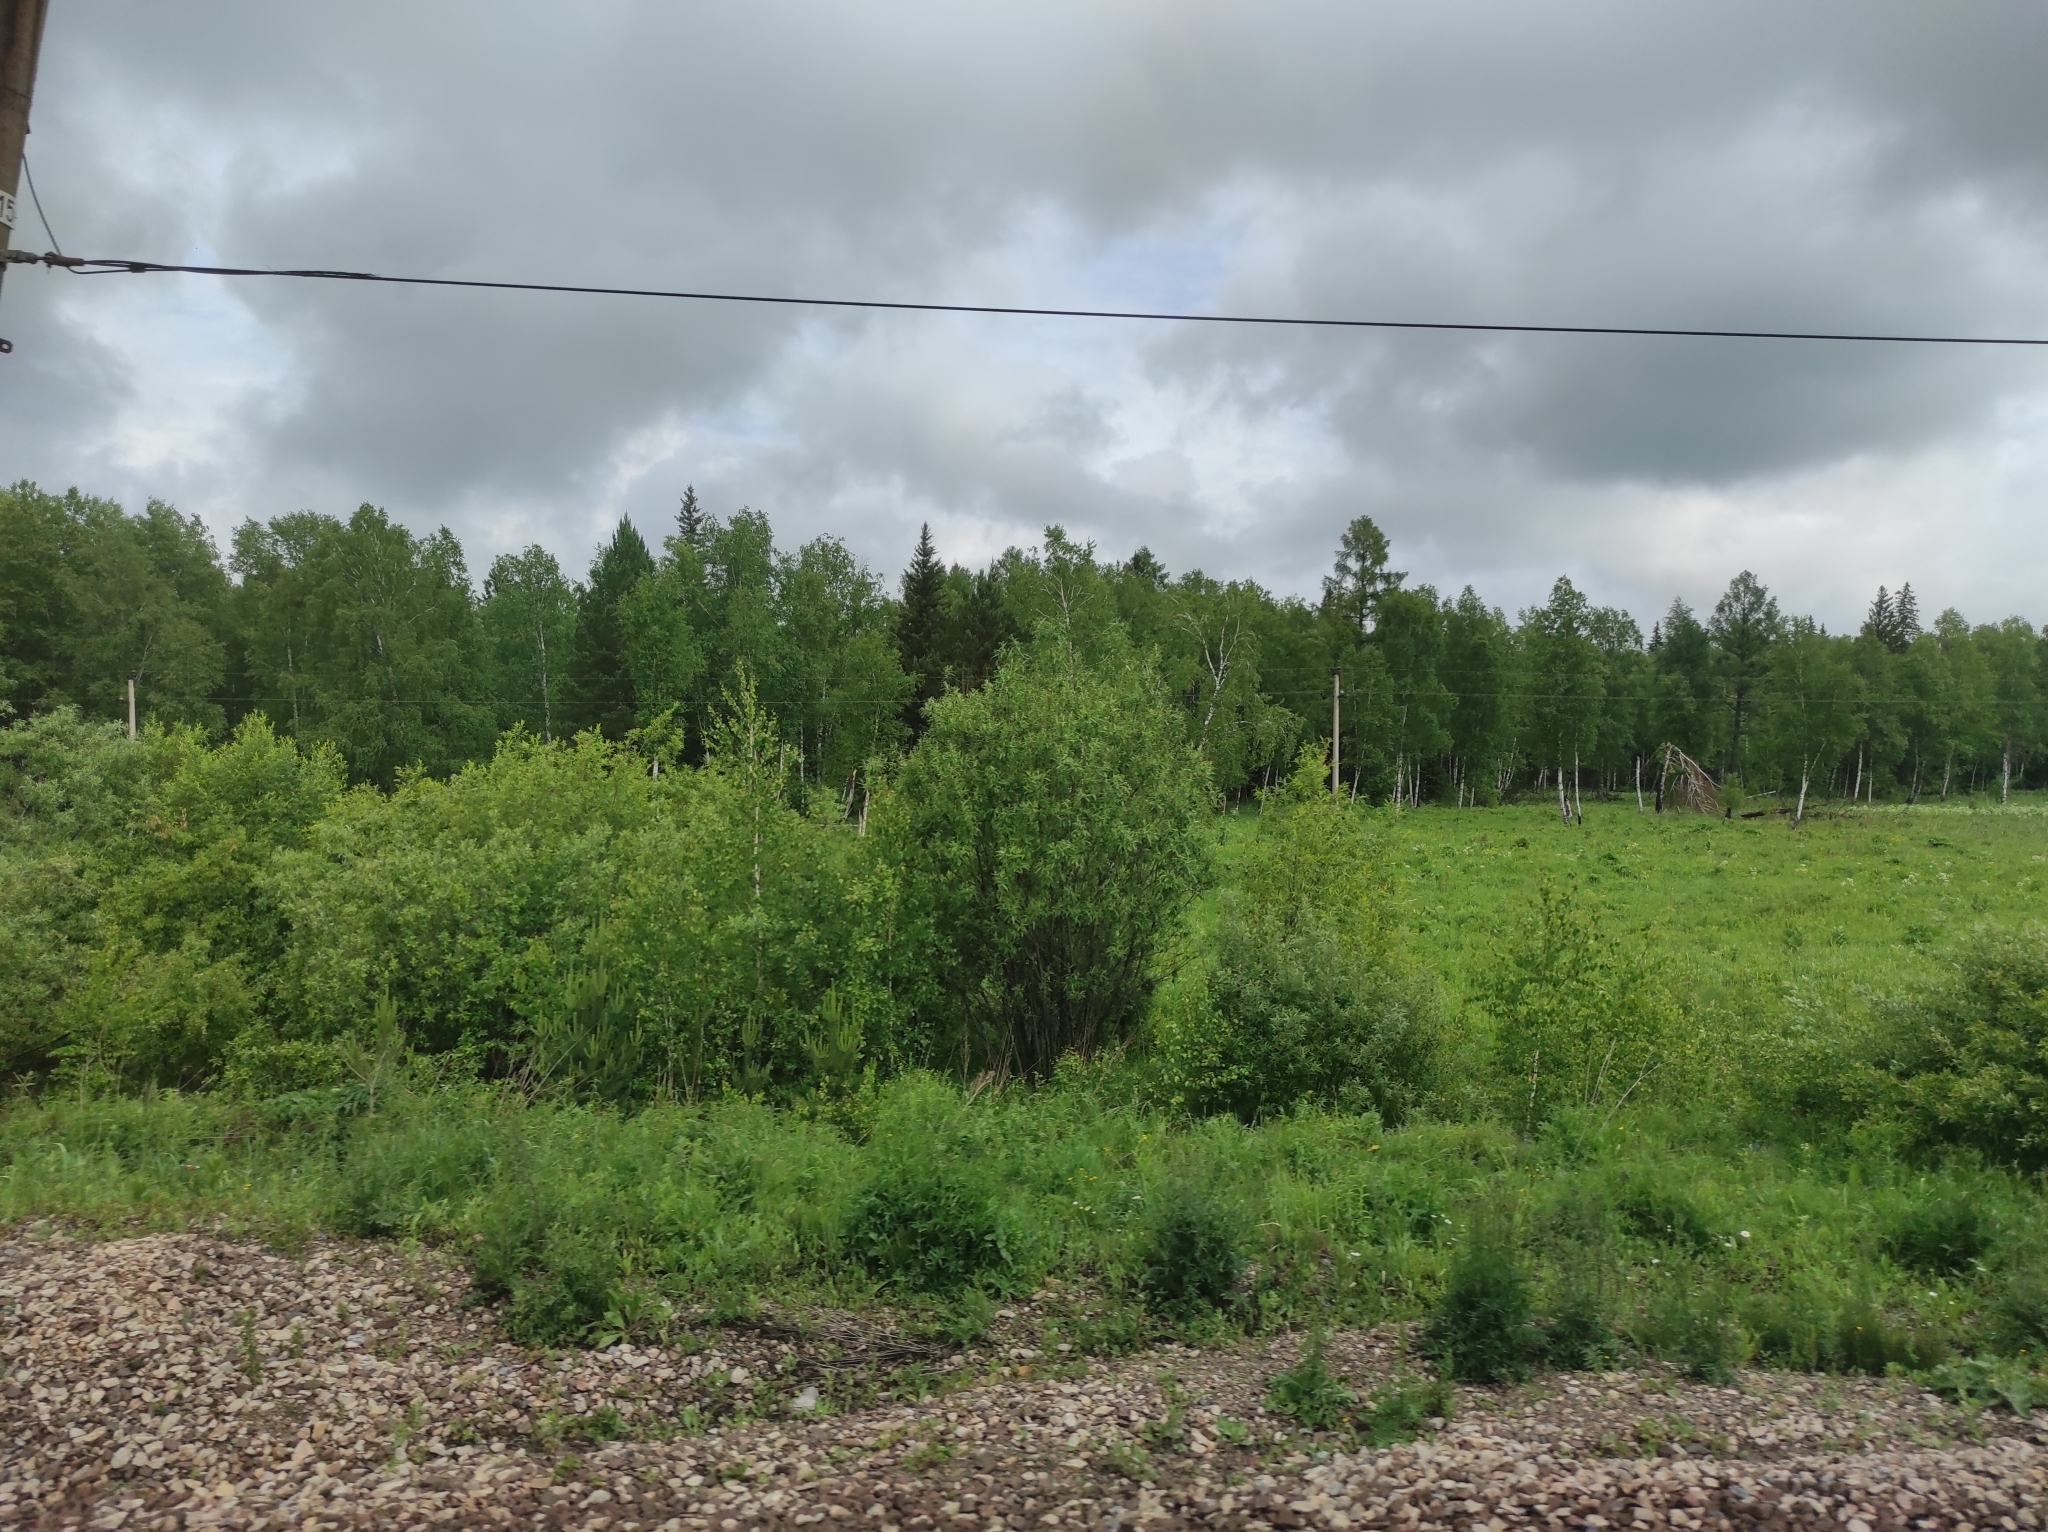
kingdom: Plantae
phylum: Tracheophyta
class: Pinopsida
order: Pinales
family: Pinaceae
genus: Picea
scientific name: Picea obovata
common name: Siberian spruce
